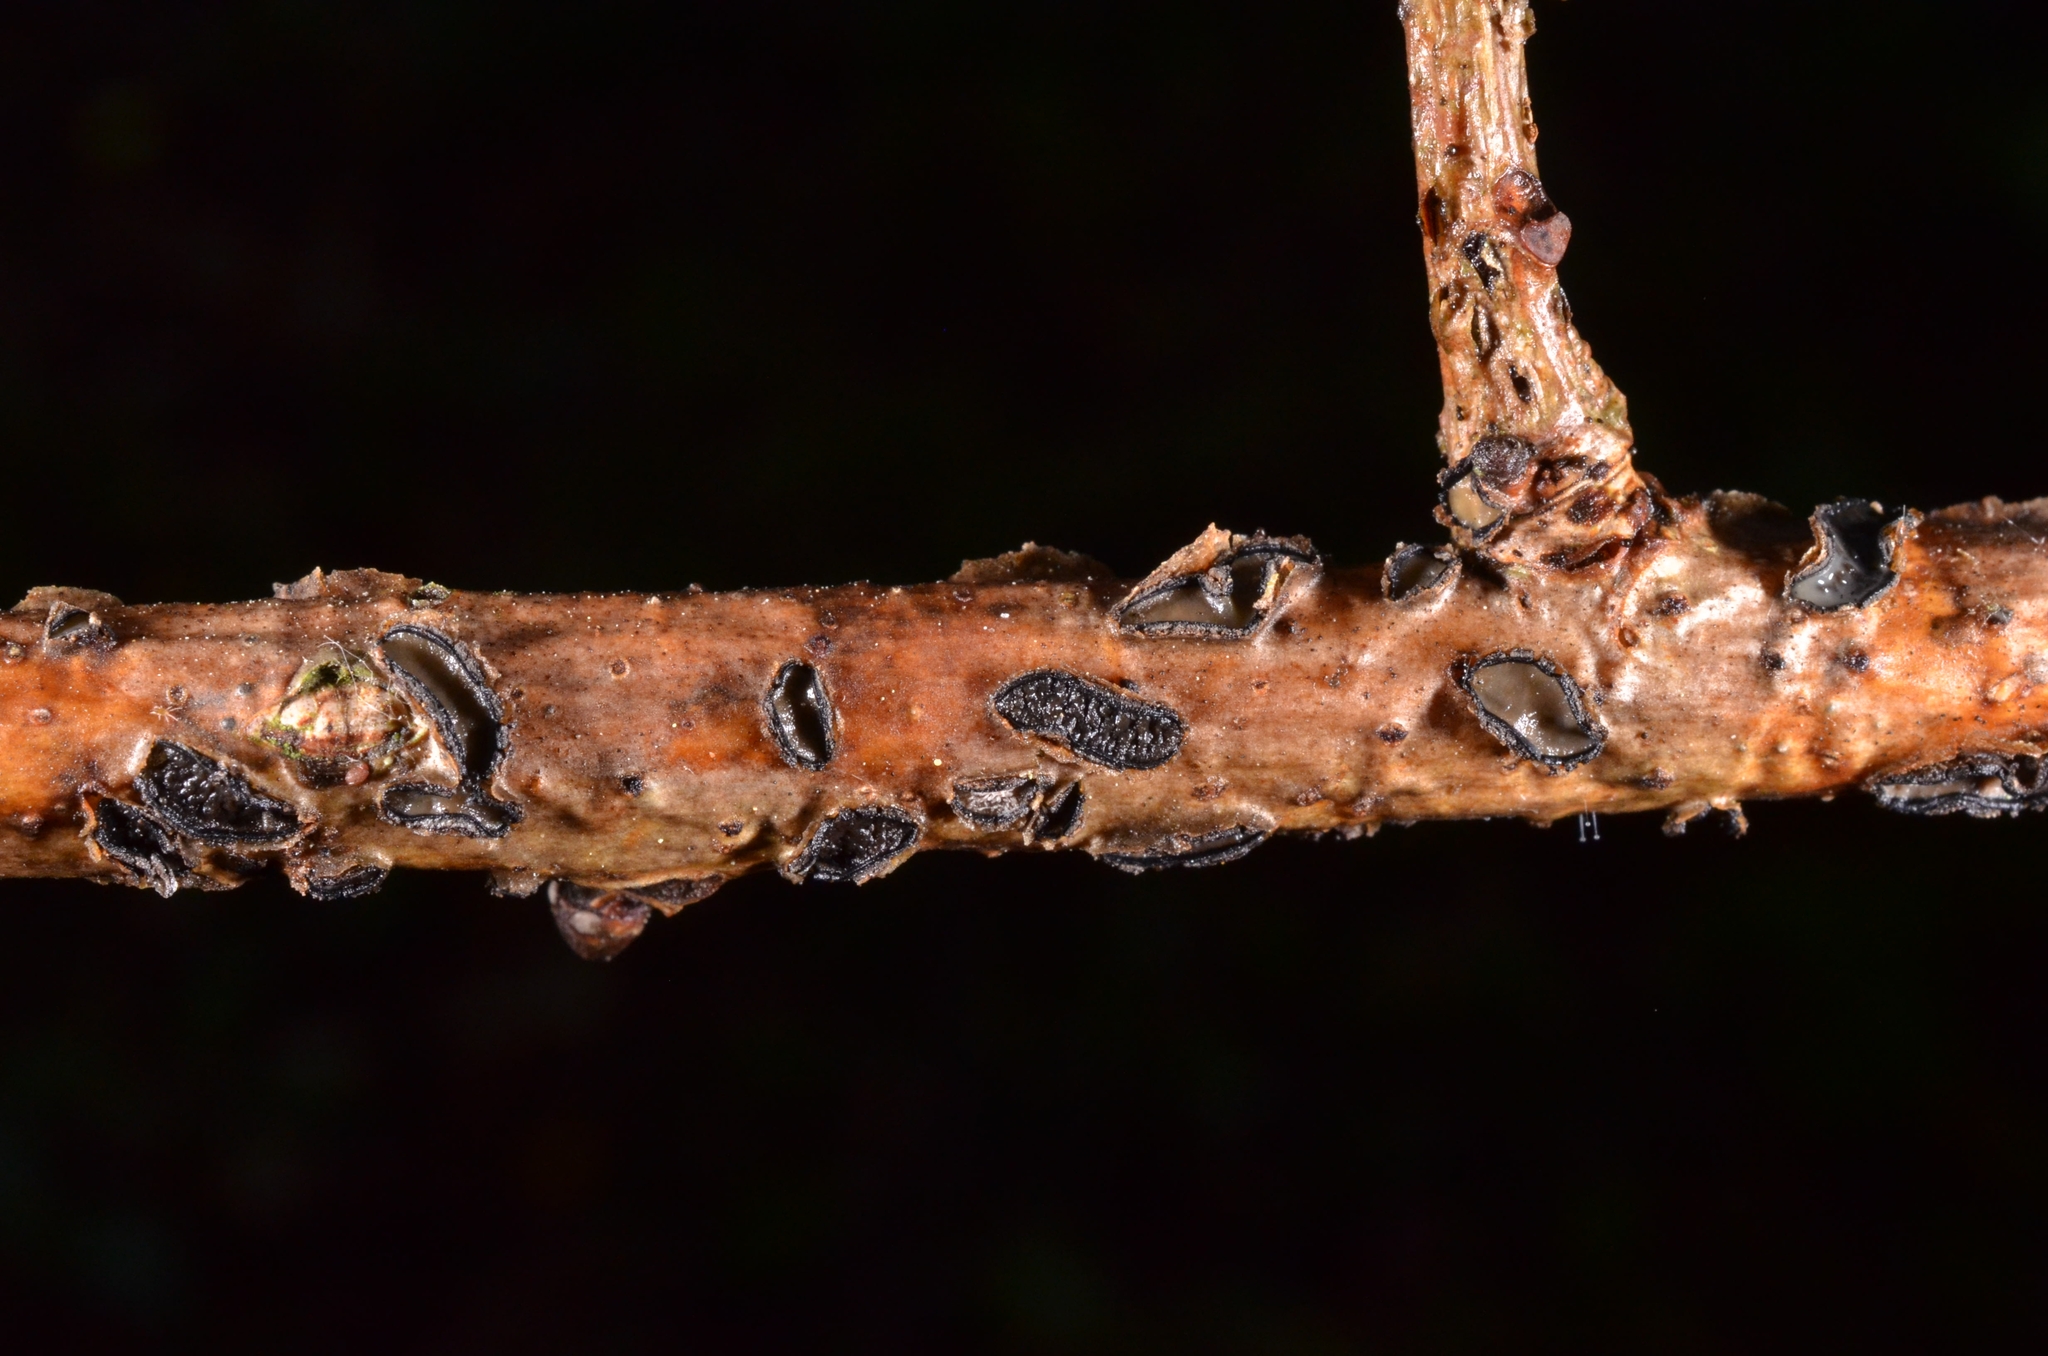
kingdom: Fungi
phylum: Ascomycota
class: Leotiomycetes
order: Rhytismatales
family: Rhytismataceae
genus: Colpoma
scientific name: Colpoma quercinum
